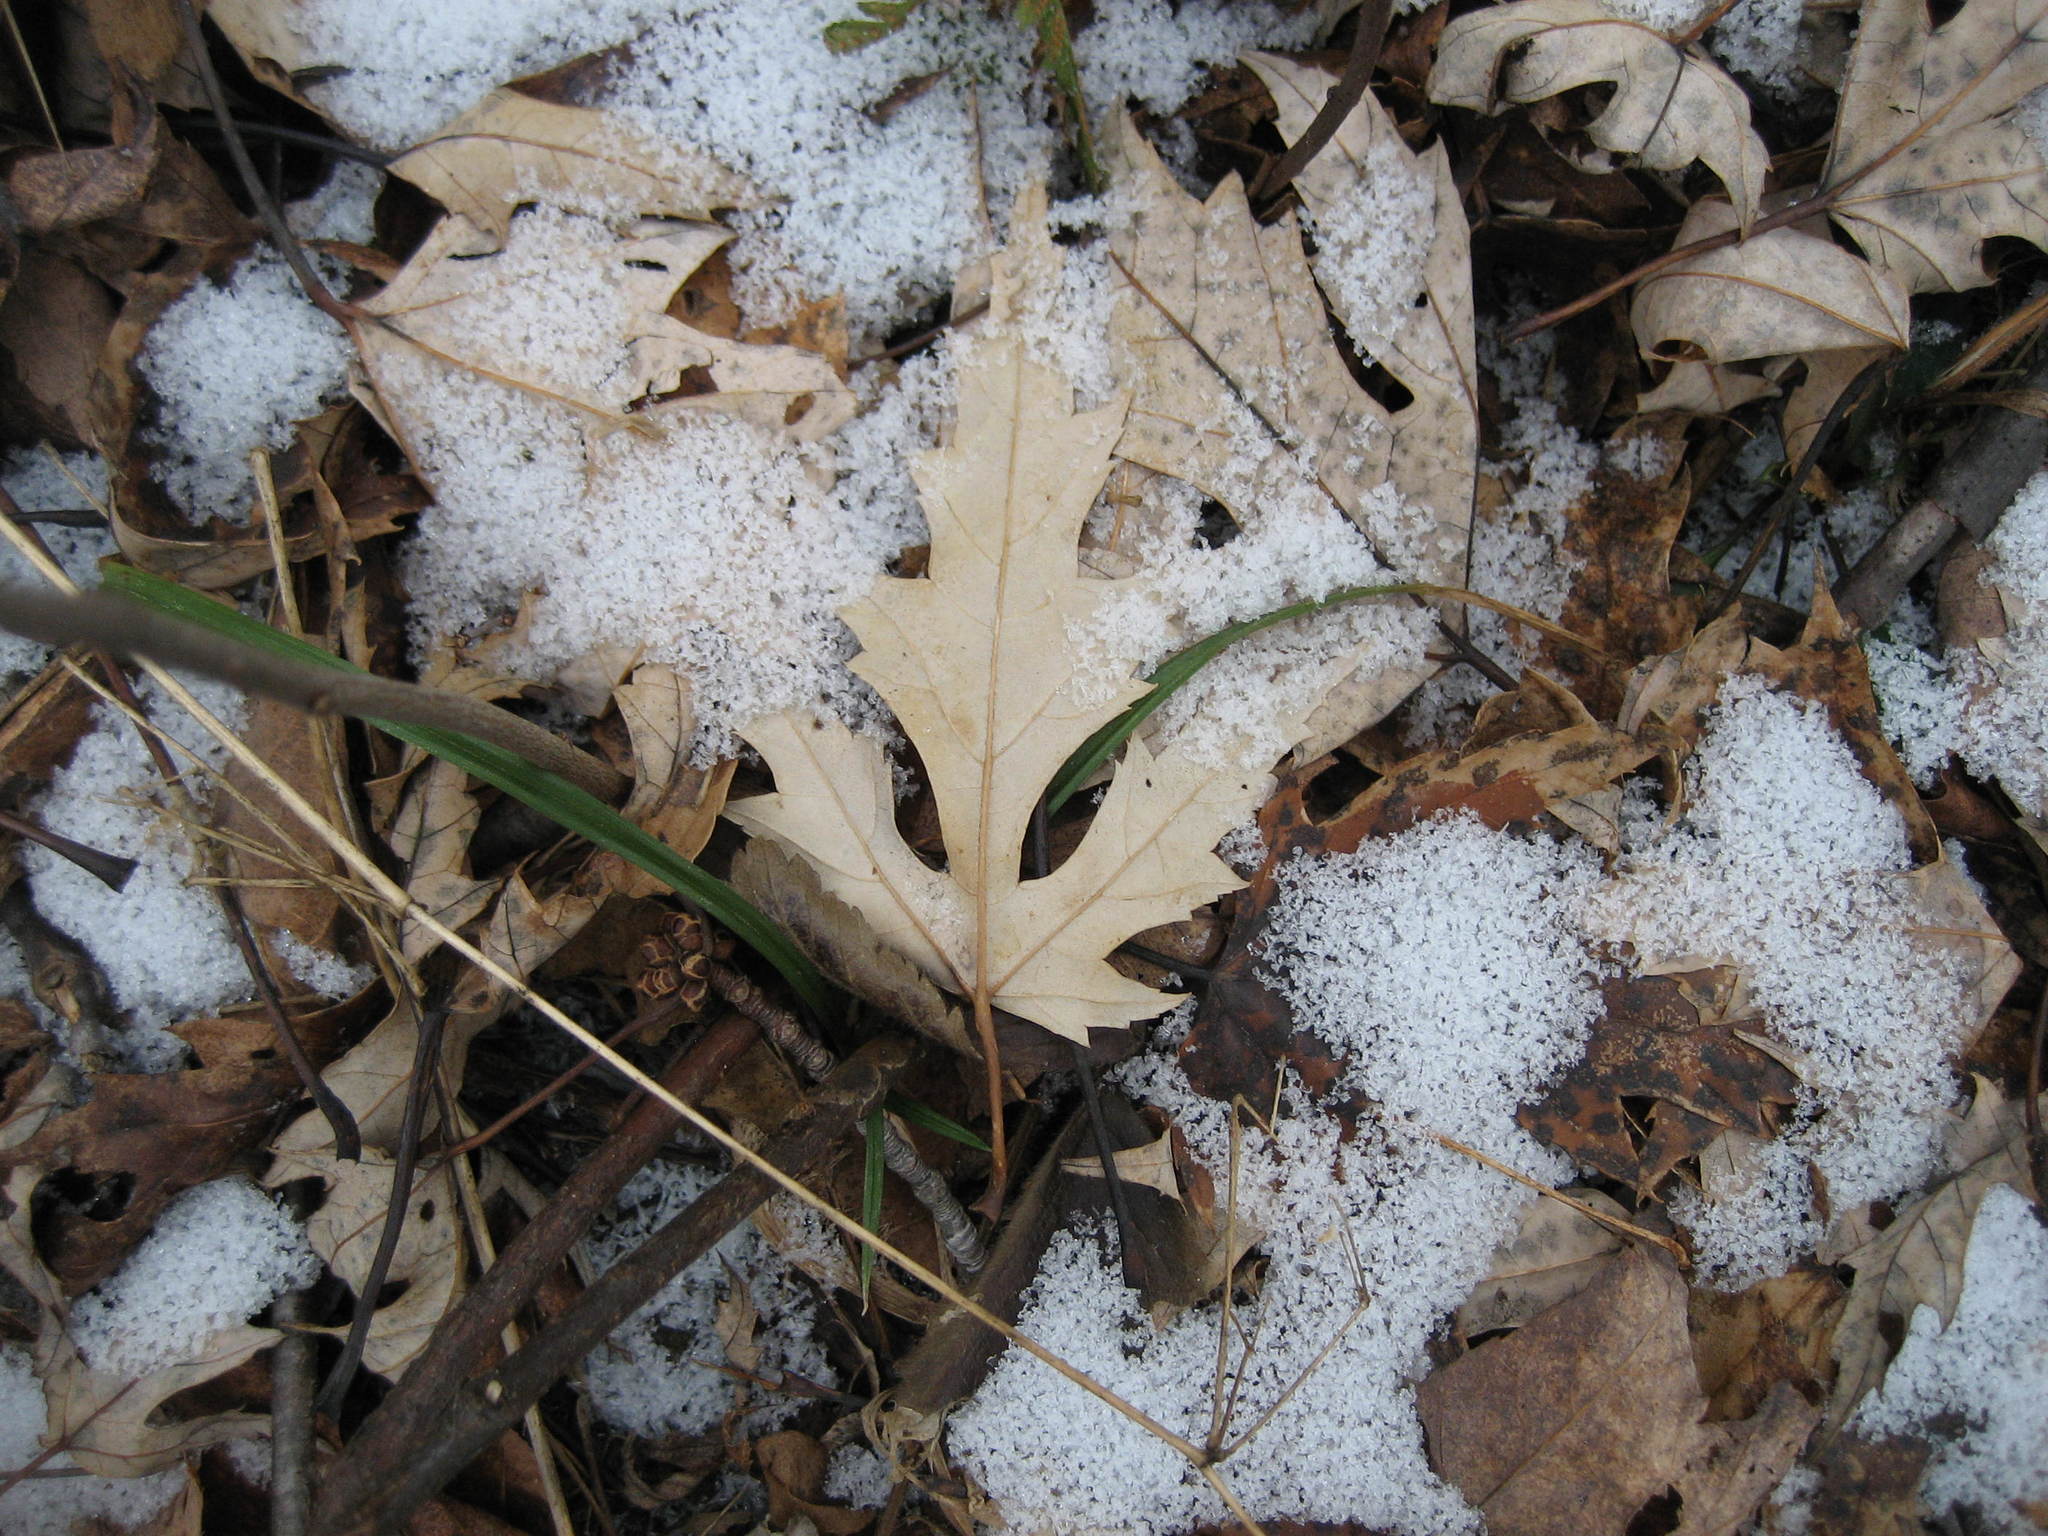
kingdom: Plantae
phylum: Tracheophyta
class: Magnoliopsida
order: Sapindales
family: Sapindaceae
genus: Acer
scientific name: Acer saccharinum
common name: Silver maple
